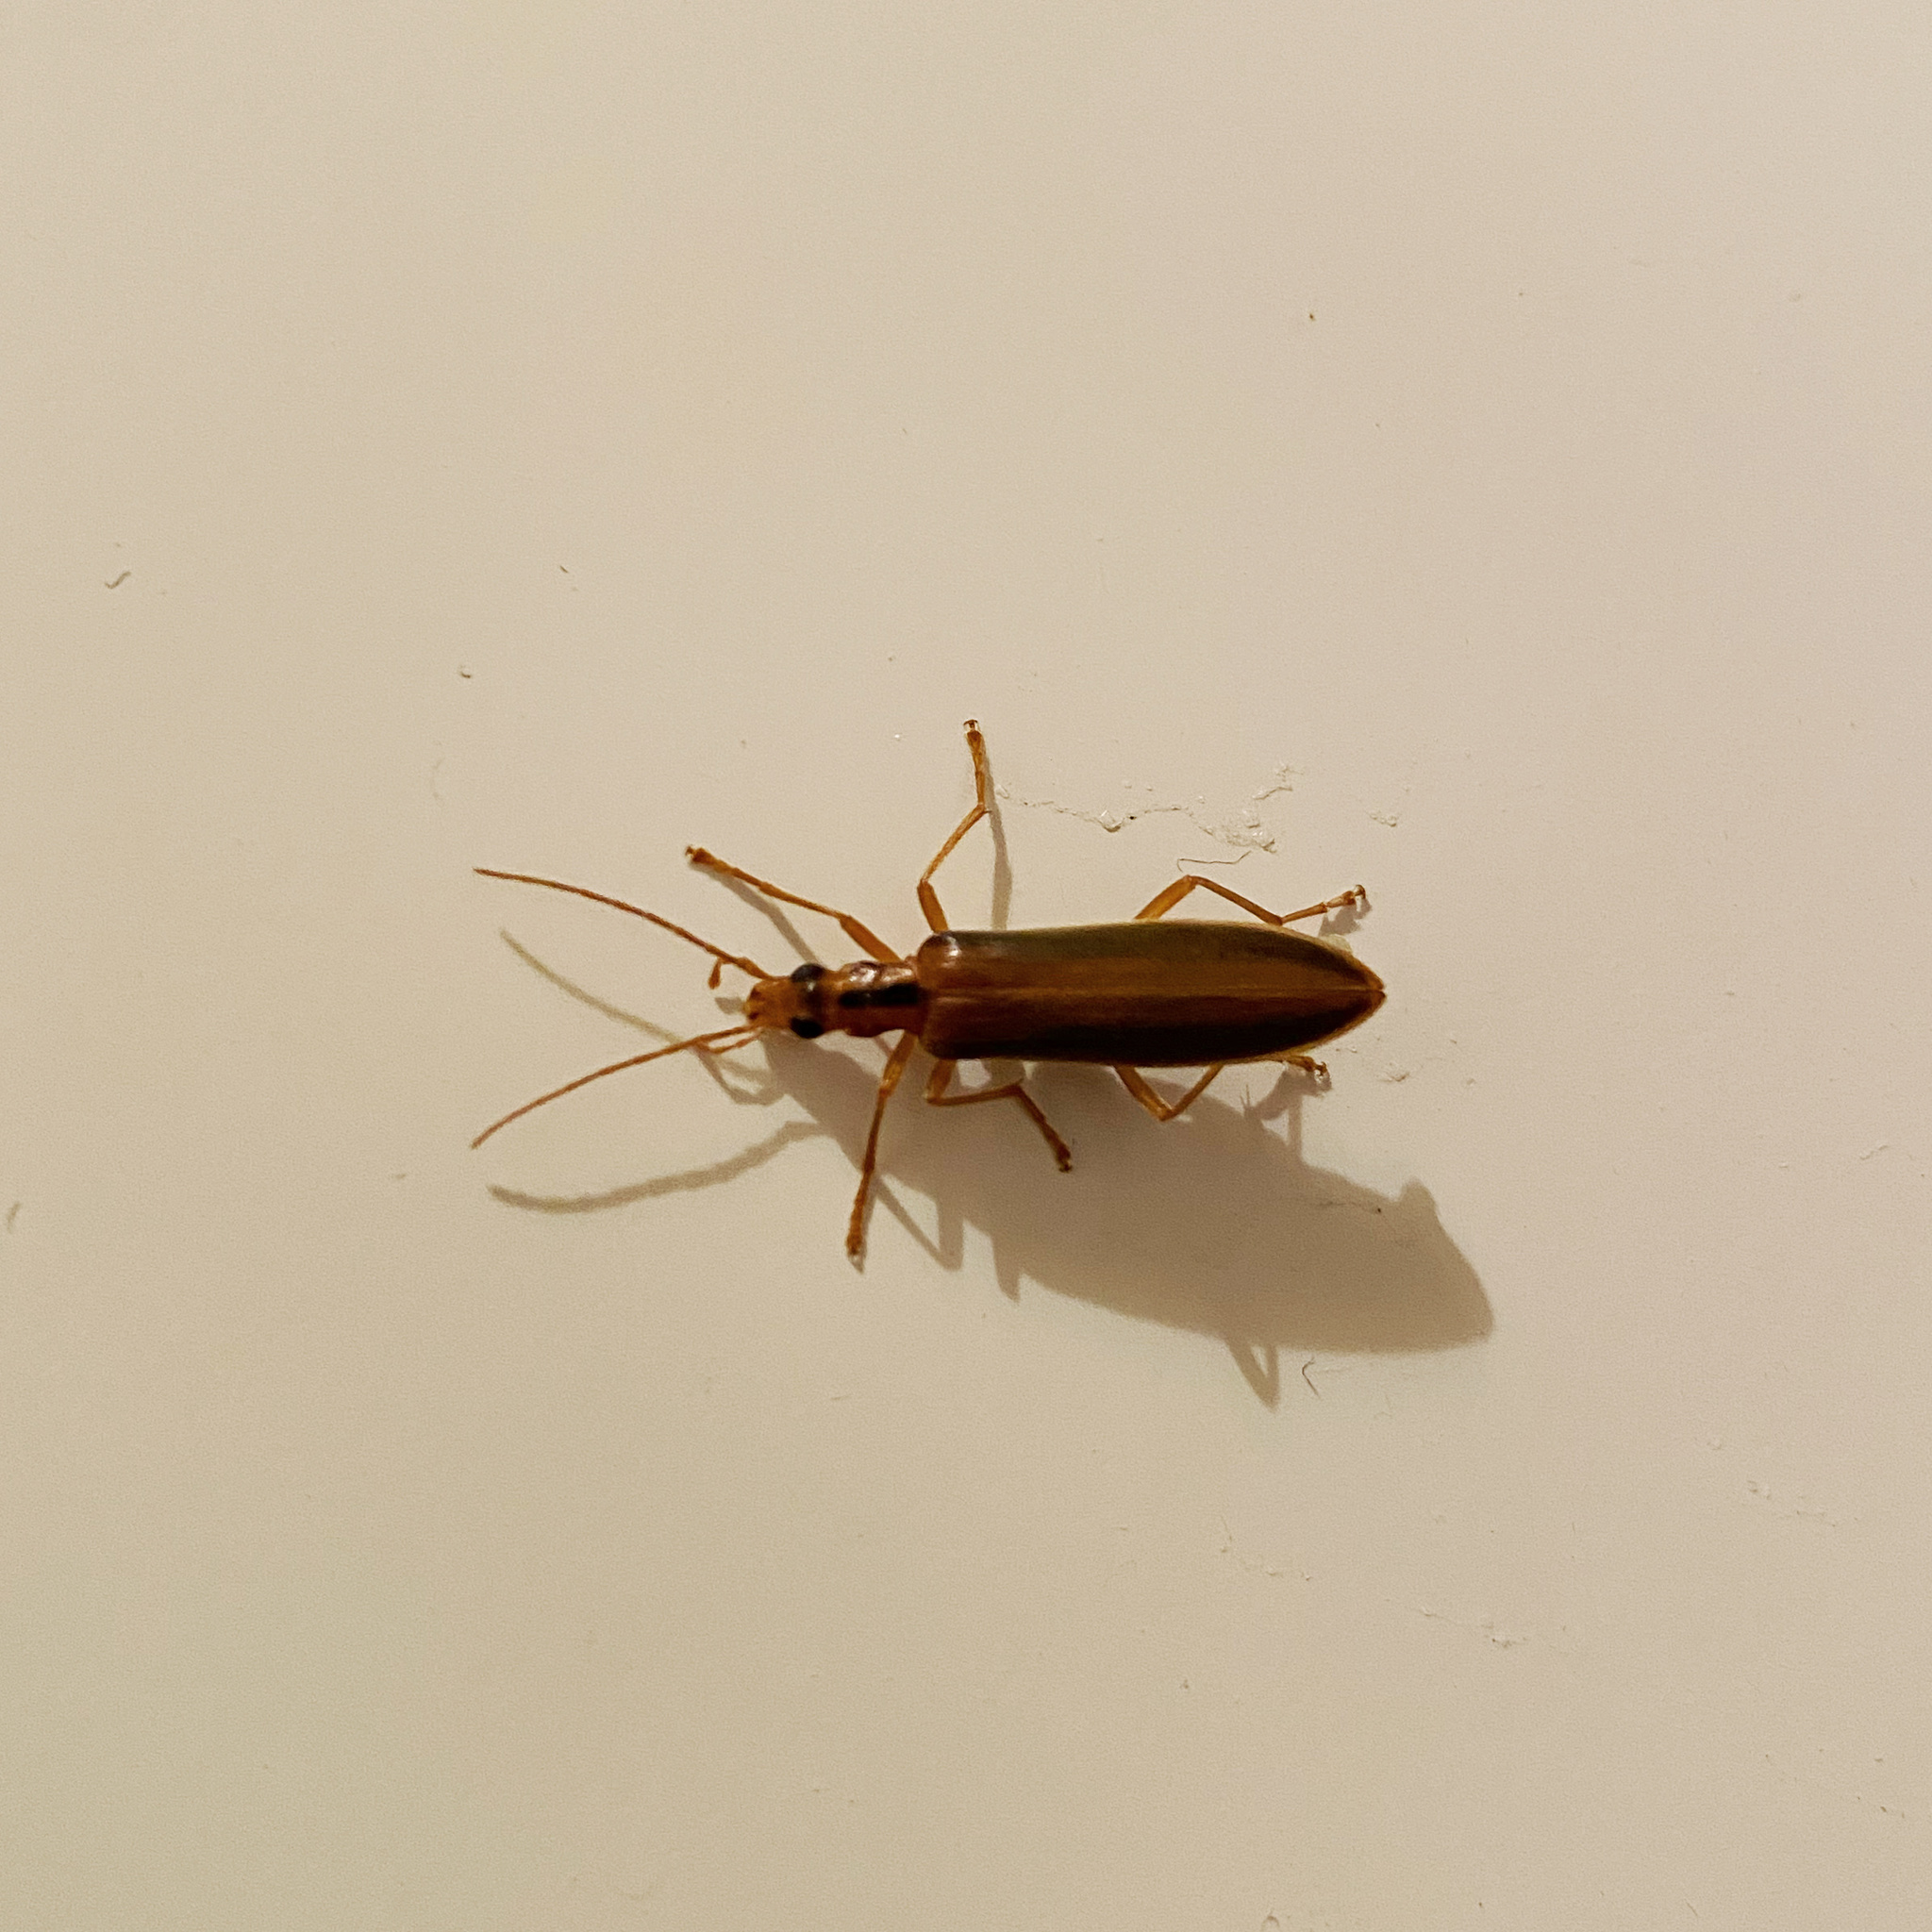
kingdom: Animalia
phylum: Arthropoda
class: Insecta
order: Coleoptera
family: Oedemeridae
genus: Thelyphassa
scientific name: Thelyphassa
